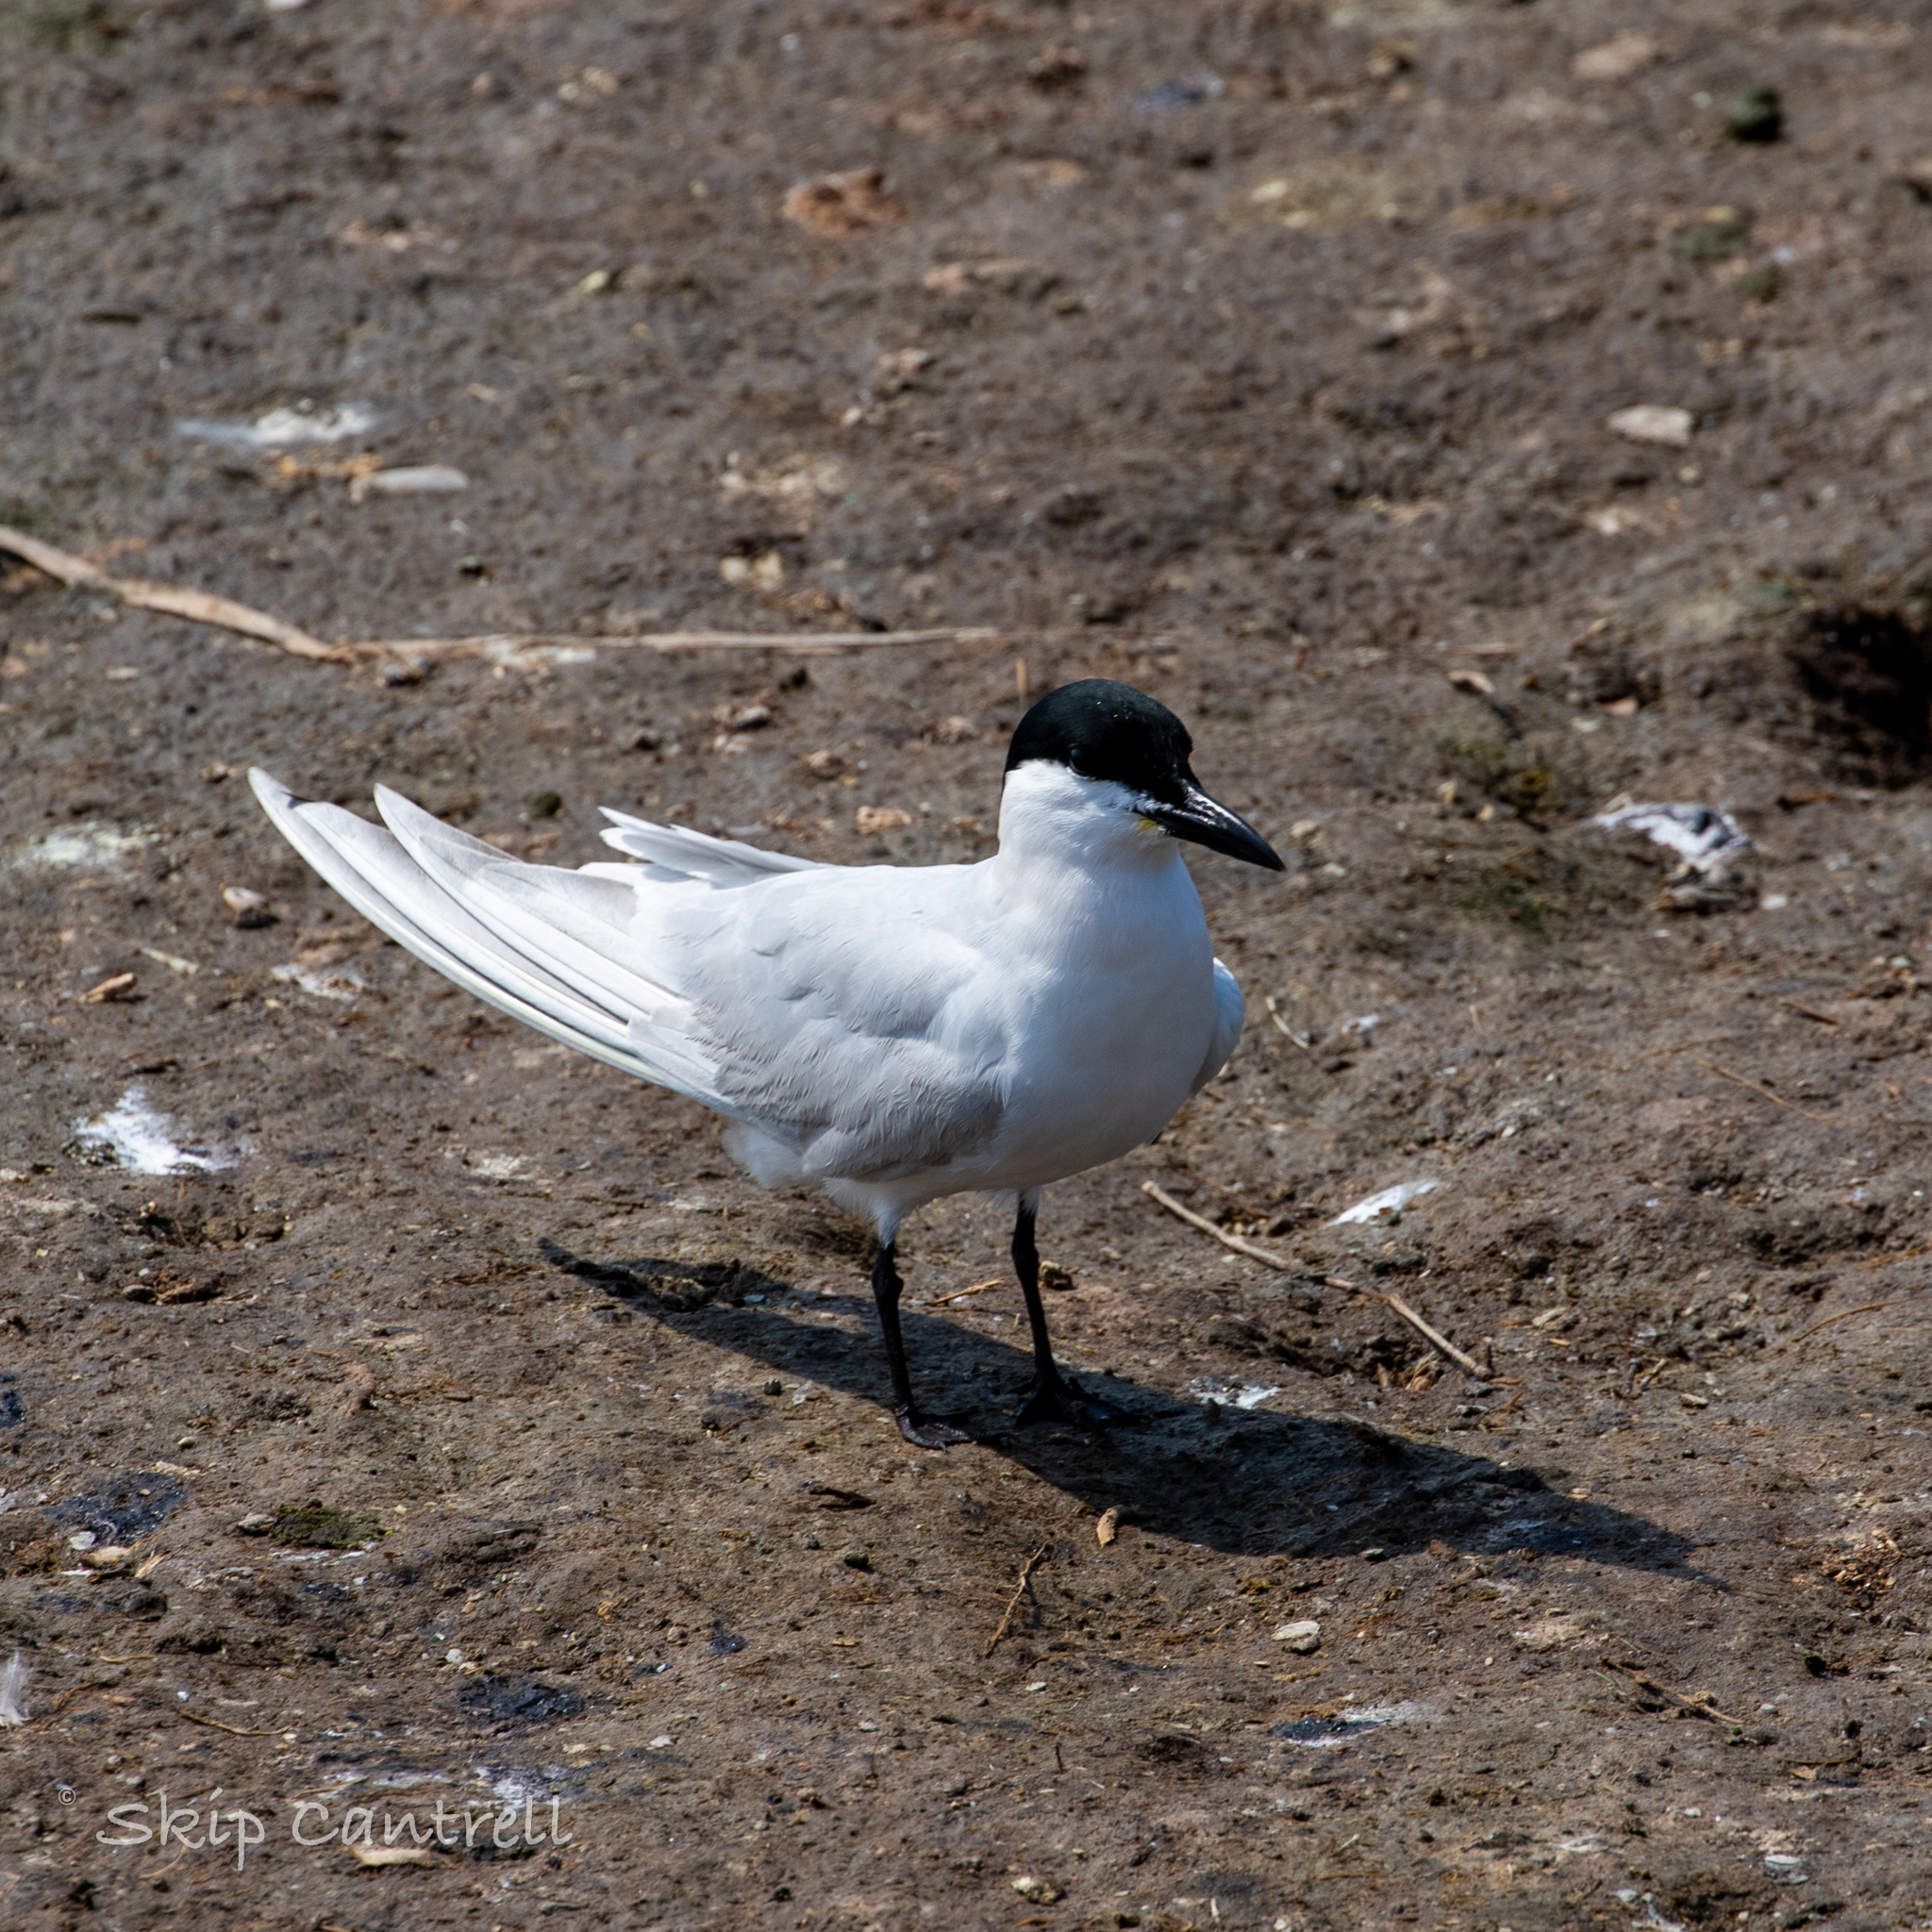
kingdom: Animalia
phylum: Chordata
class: Aves
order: Charadriiformes
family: Laridae
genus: Gelochelidon
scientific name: Gelochelidon nilotica
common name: Gull-billed tern
